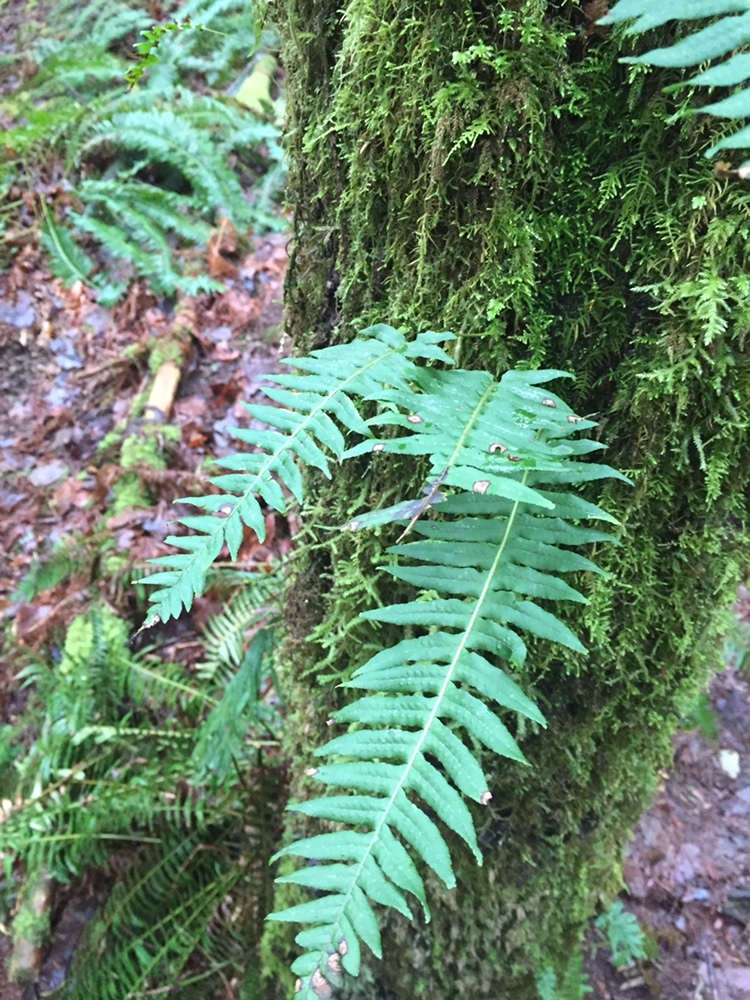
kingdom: Plantae
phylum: Tracheophyta
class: Polypodiopsida
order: Polypodiales
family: Polypodiaceae
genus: Polypodium
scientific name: Polypodium glycyrrhiza
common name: Licorice fern
